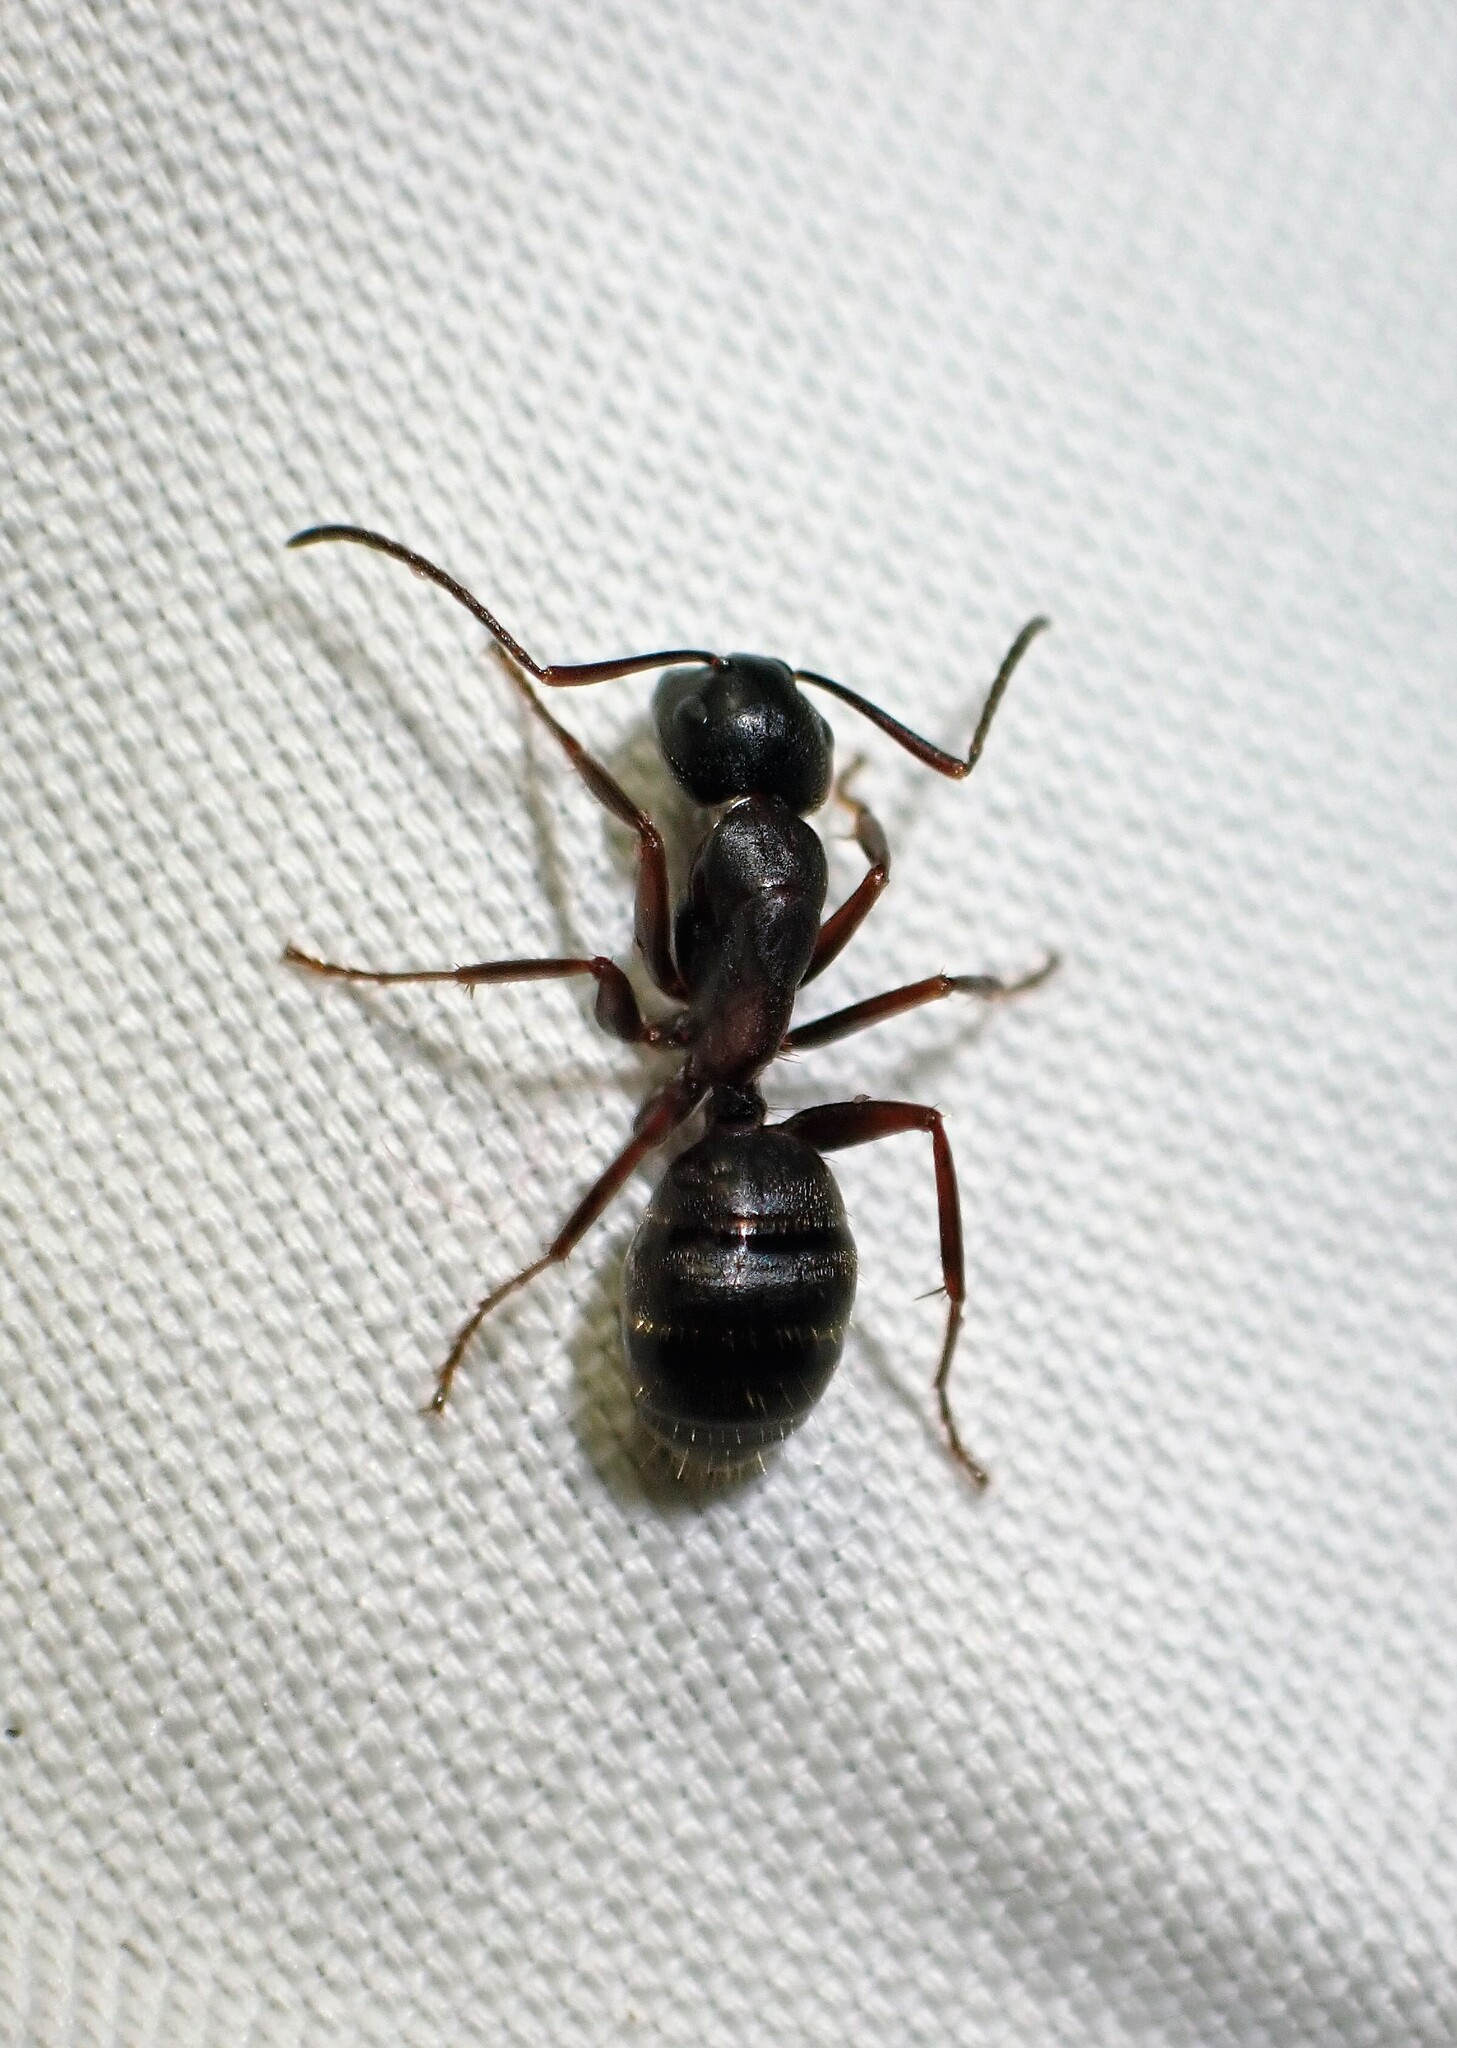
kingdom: Animalia
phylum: Arthropoda
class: Insecta
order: Hymenoptera
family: Formicidae
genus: Camponotus
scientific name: Camponotus herculeanus
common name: Hercules ant
